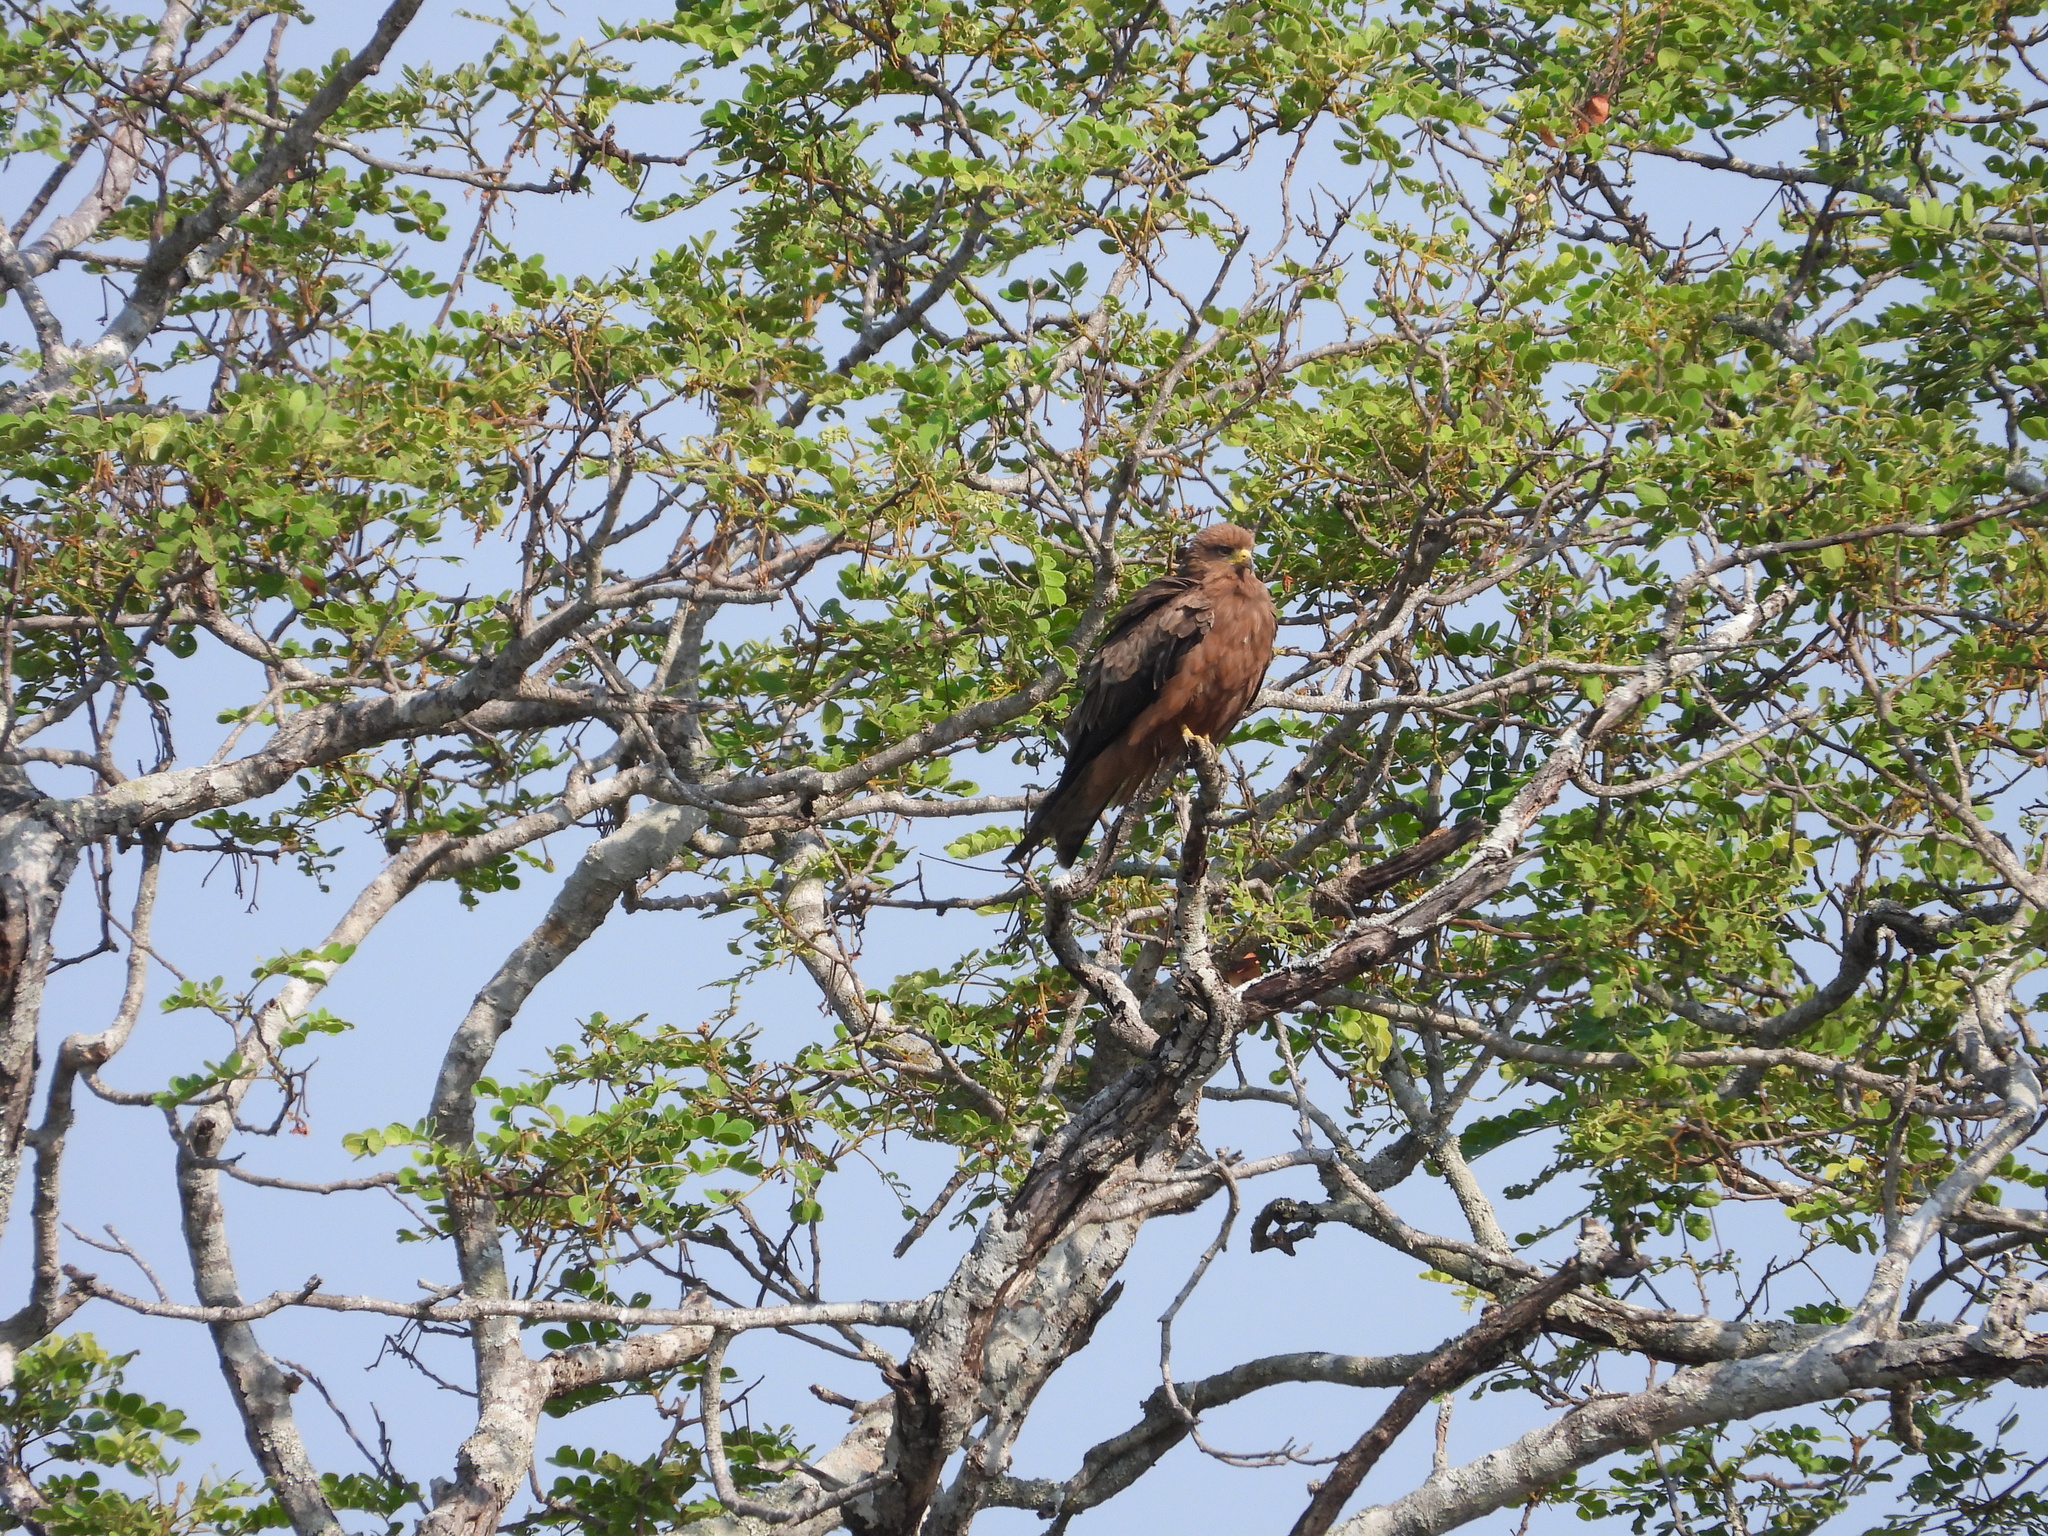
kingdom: Animalia
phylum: Chordata
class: Aves
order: Accipitriformes
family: Accipitridae
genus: Milvus
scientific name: Milvus migrans
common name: Black kite
